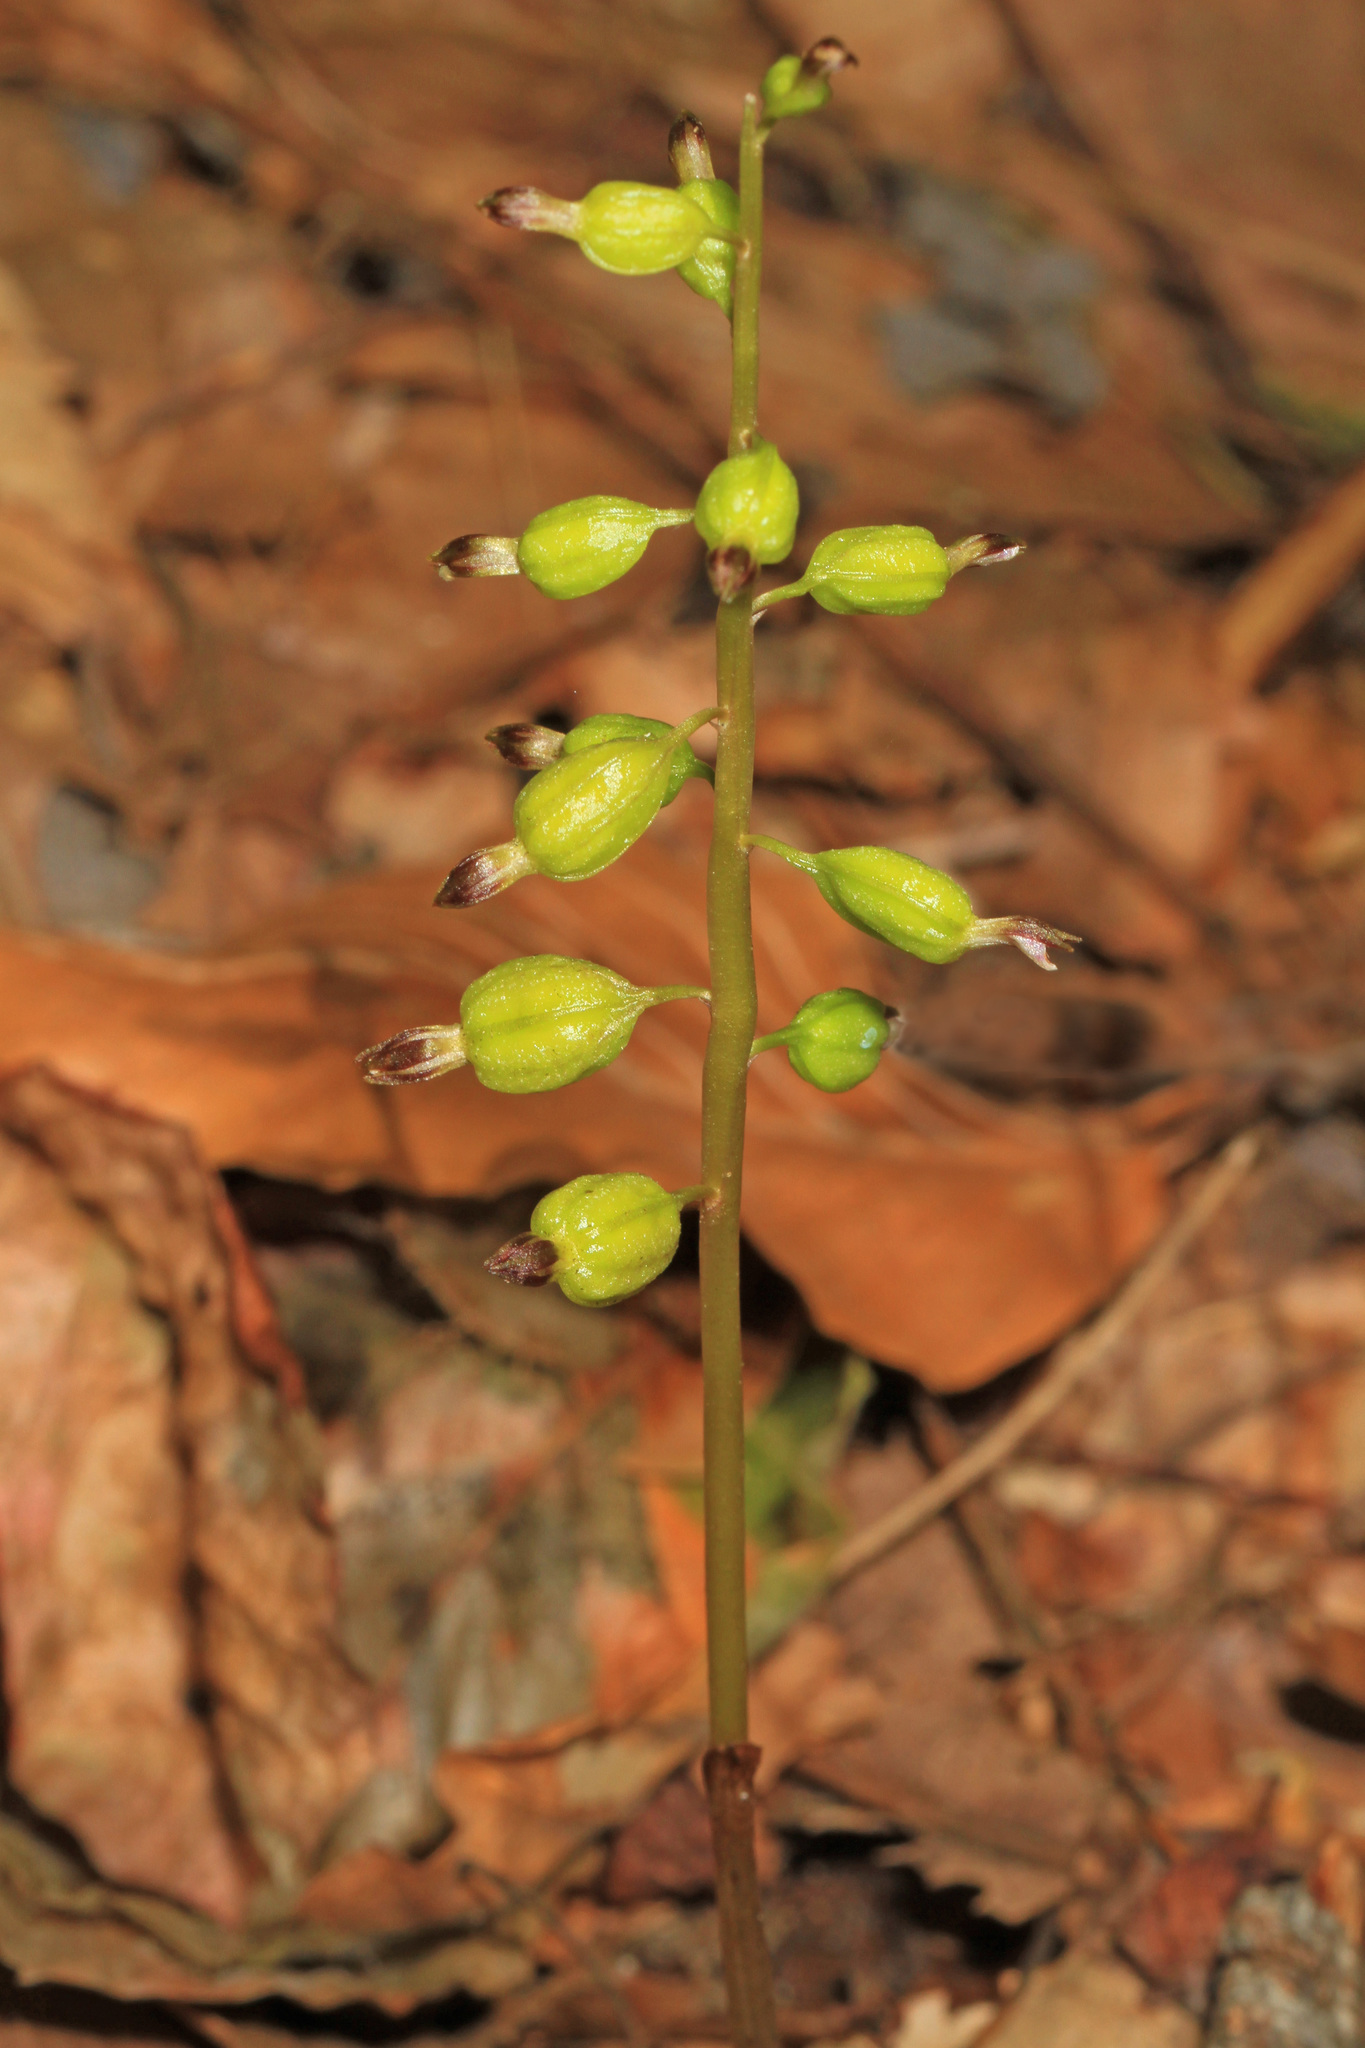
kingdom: Plantae
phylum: Tracheophyta
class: Liliopsida
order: Asparagales
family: Orchidaceae
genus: Corallorhiza
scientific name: Corallorhiza odontorhiza
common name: Autumn coralroot
